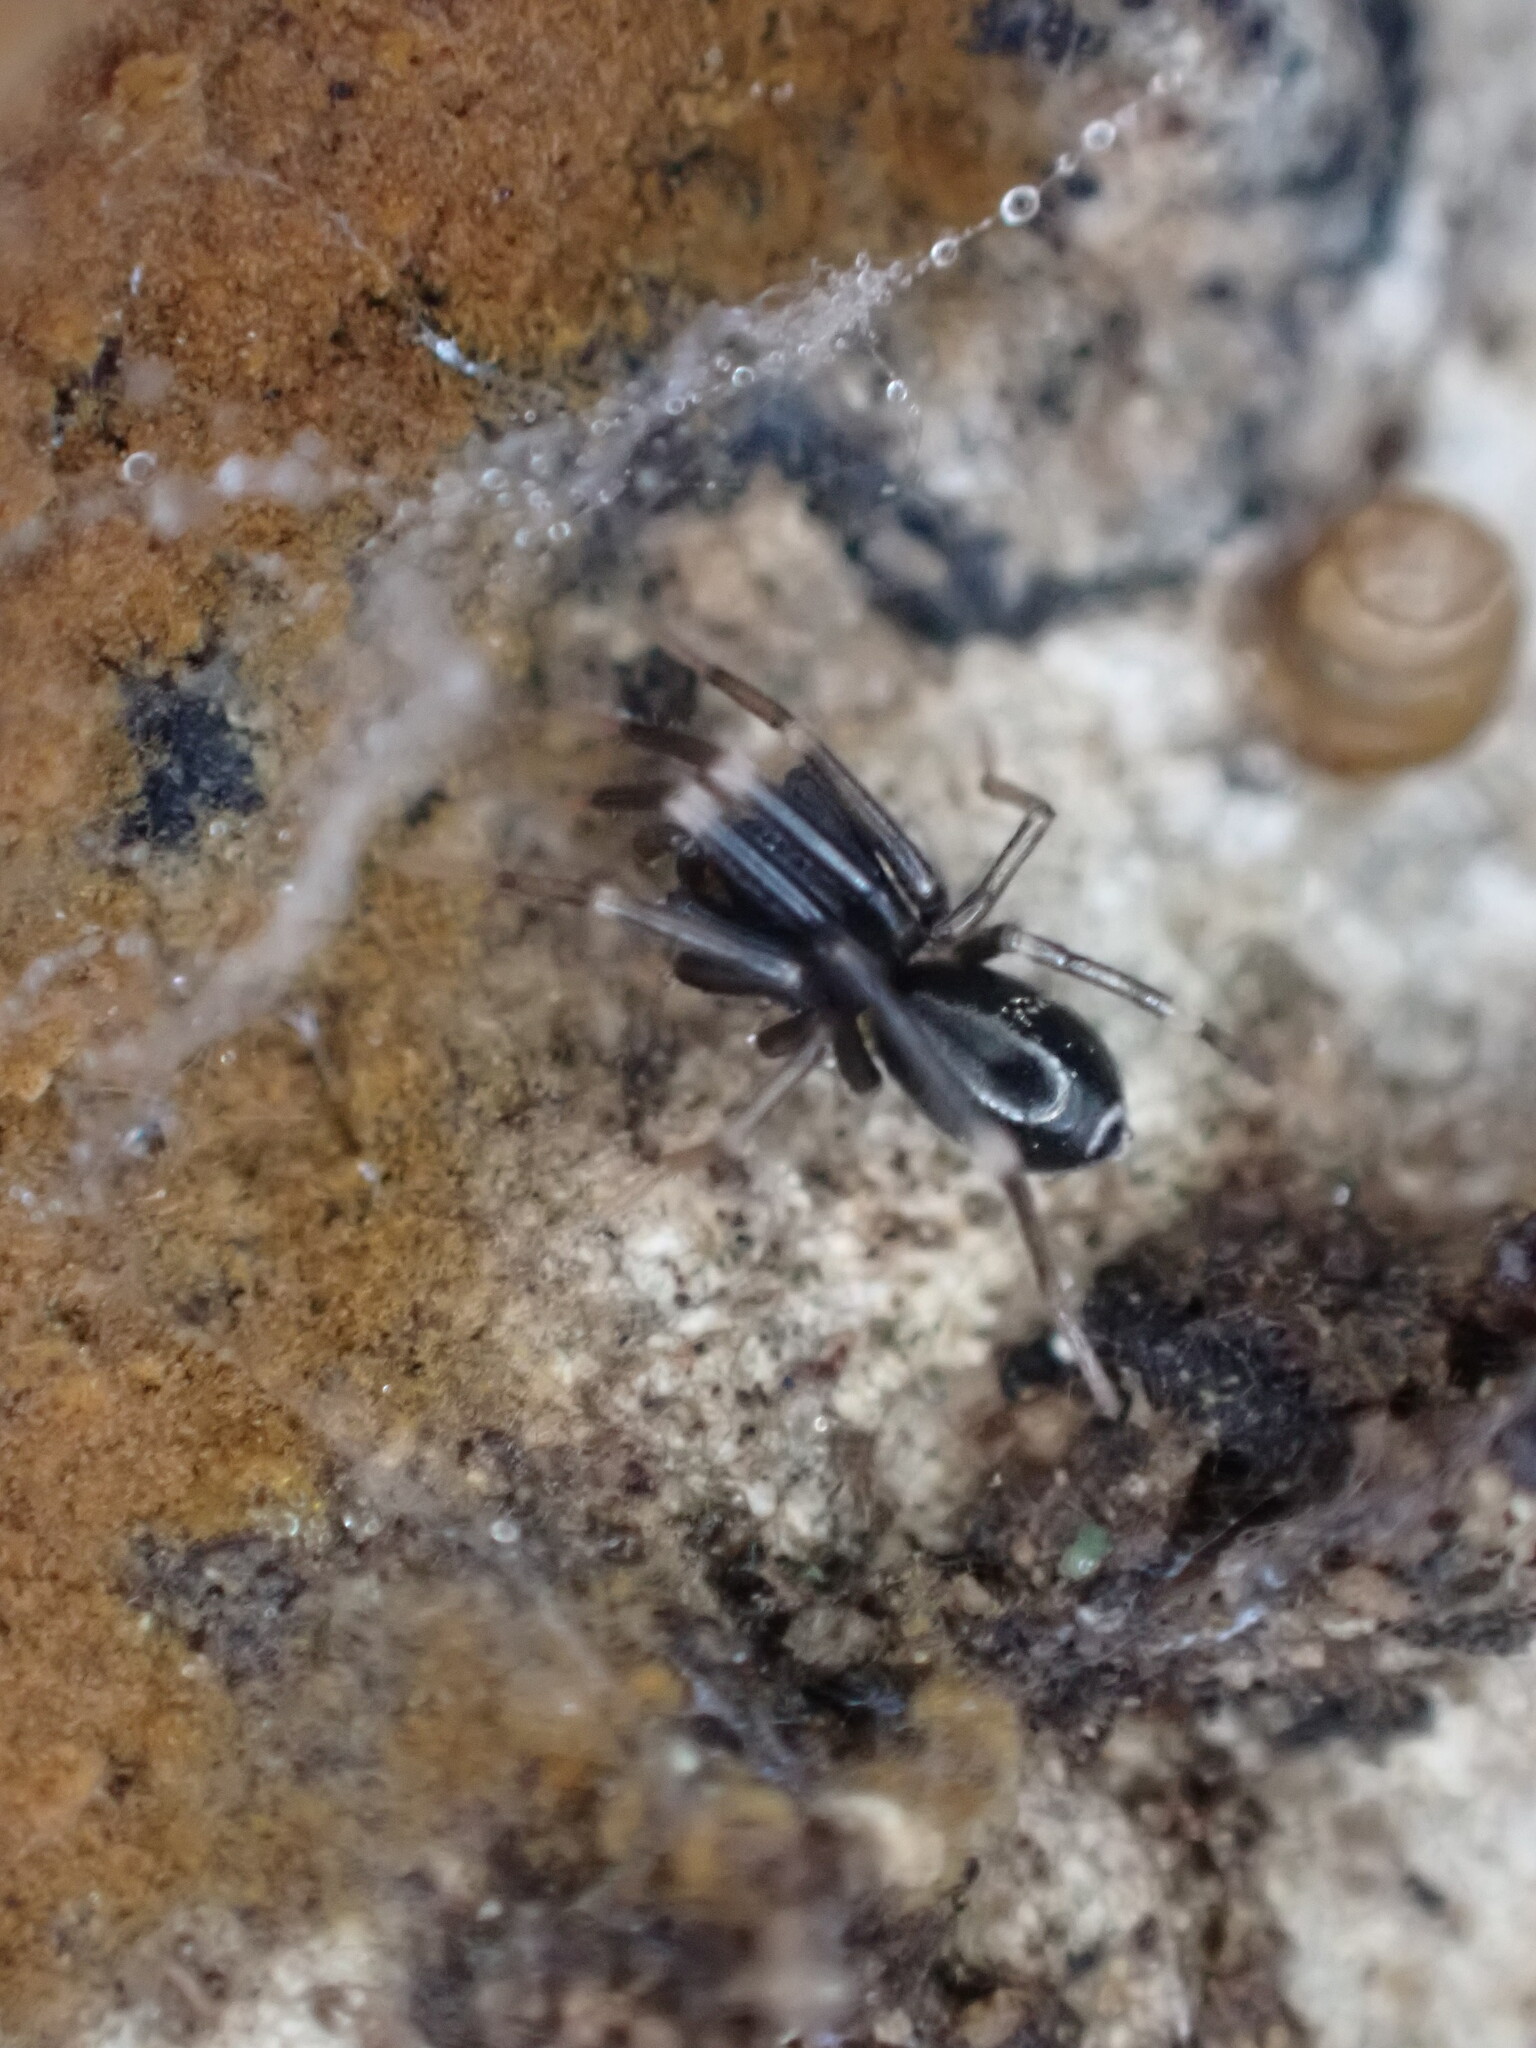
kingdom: Animalia
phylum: Arthropoda
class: Arachnida
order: Araneae
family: Phrurolithidae
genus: Liophrurillus
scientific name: Liophrurillus flavitarsis
